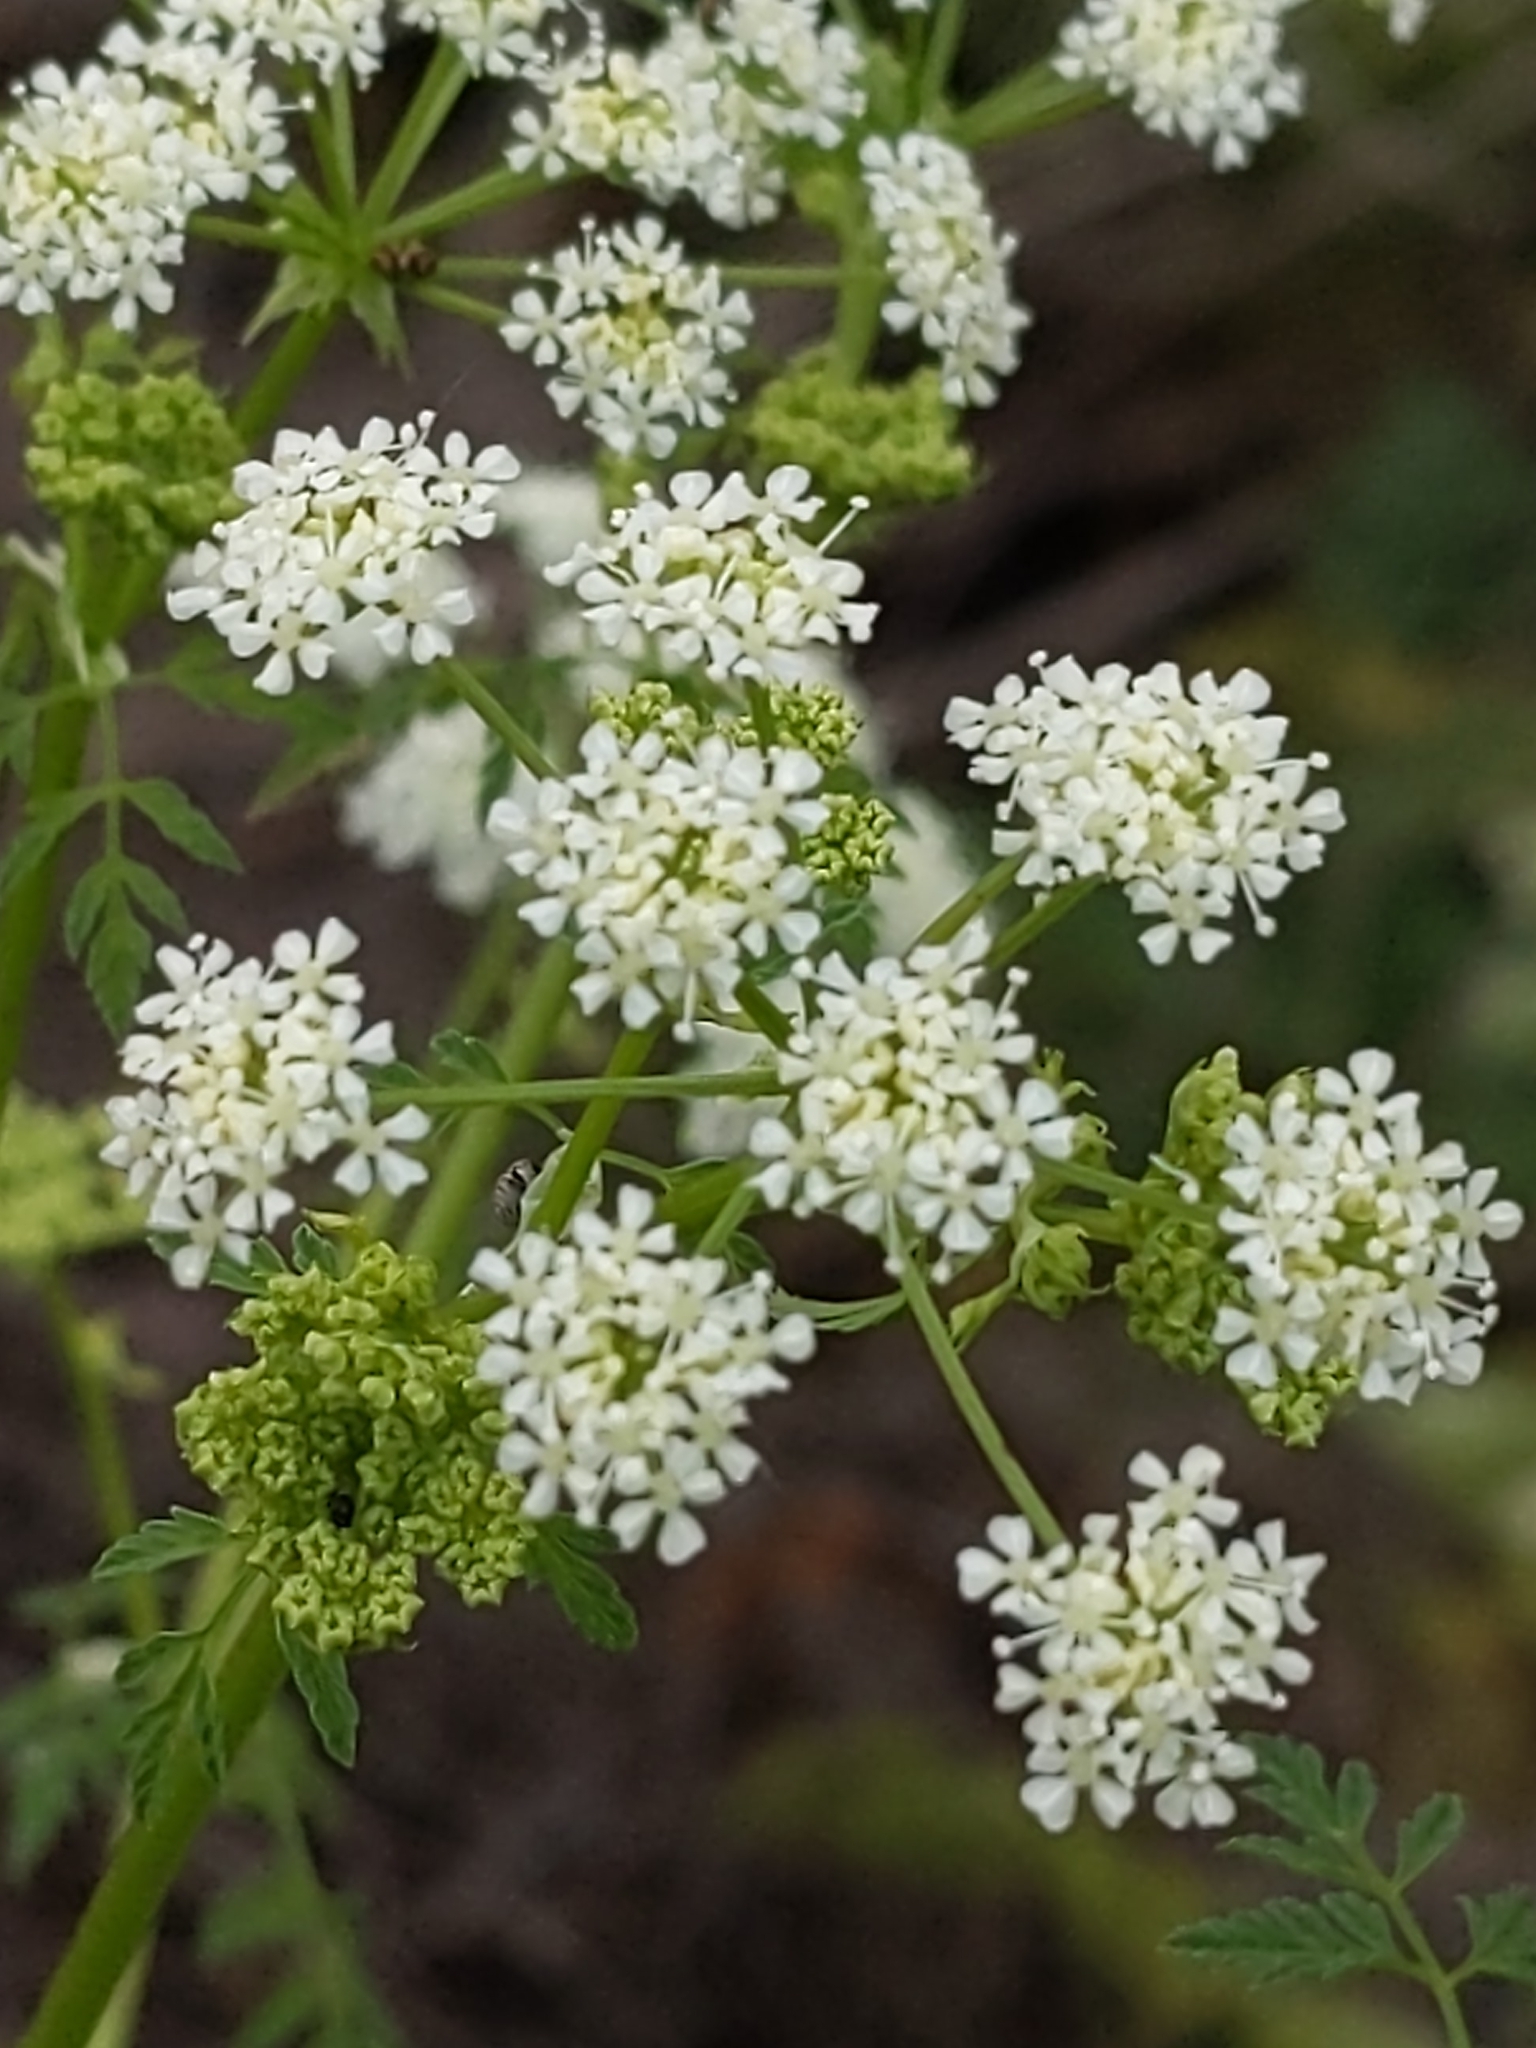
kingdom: Plantae
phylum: Tracheophyta
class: Magnoliopsida
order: Apiales
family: Apiaceae
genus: Conium
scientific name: Conium maculatum
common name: Hemlock
